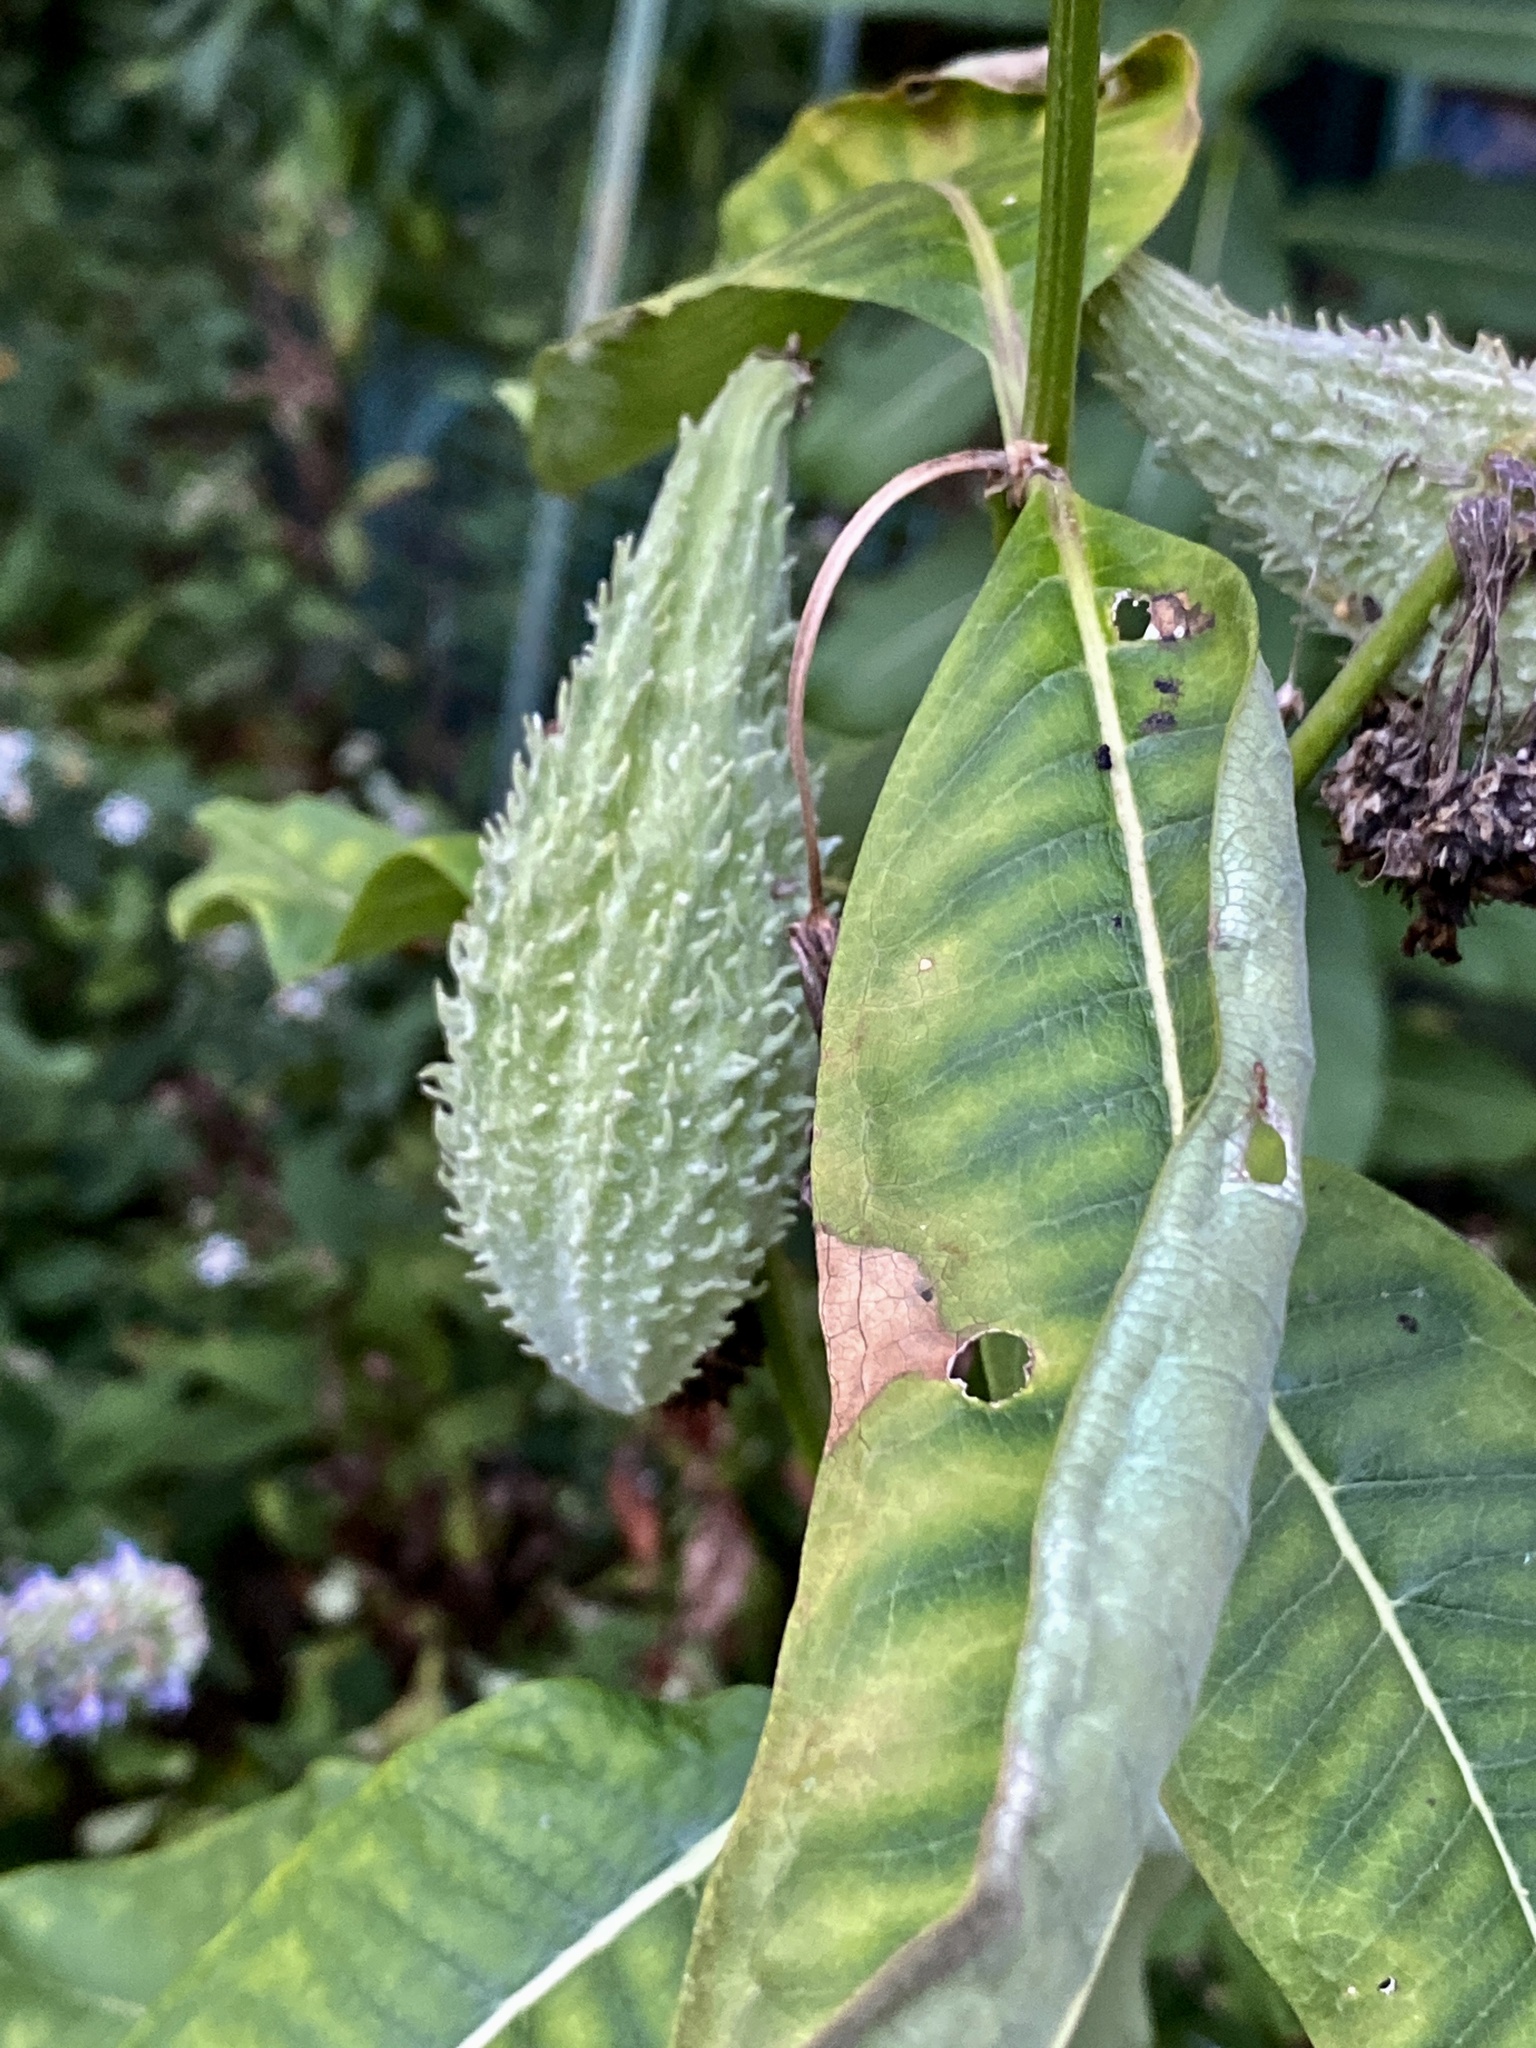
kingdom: Plantae
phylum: Tracheophyta
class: Magnoliopsida
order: Gentianales
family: Apocynaceae
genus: Asclepias
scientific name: Asclepias syriaca
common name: Common milkweed
